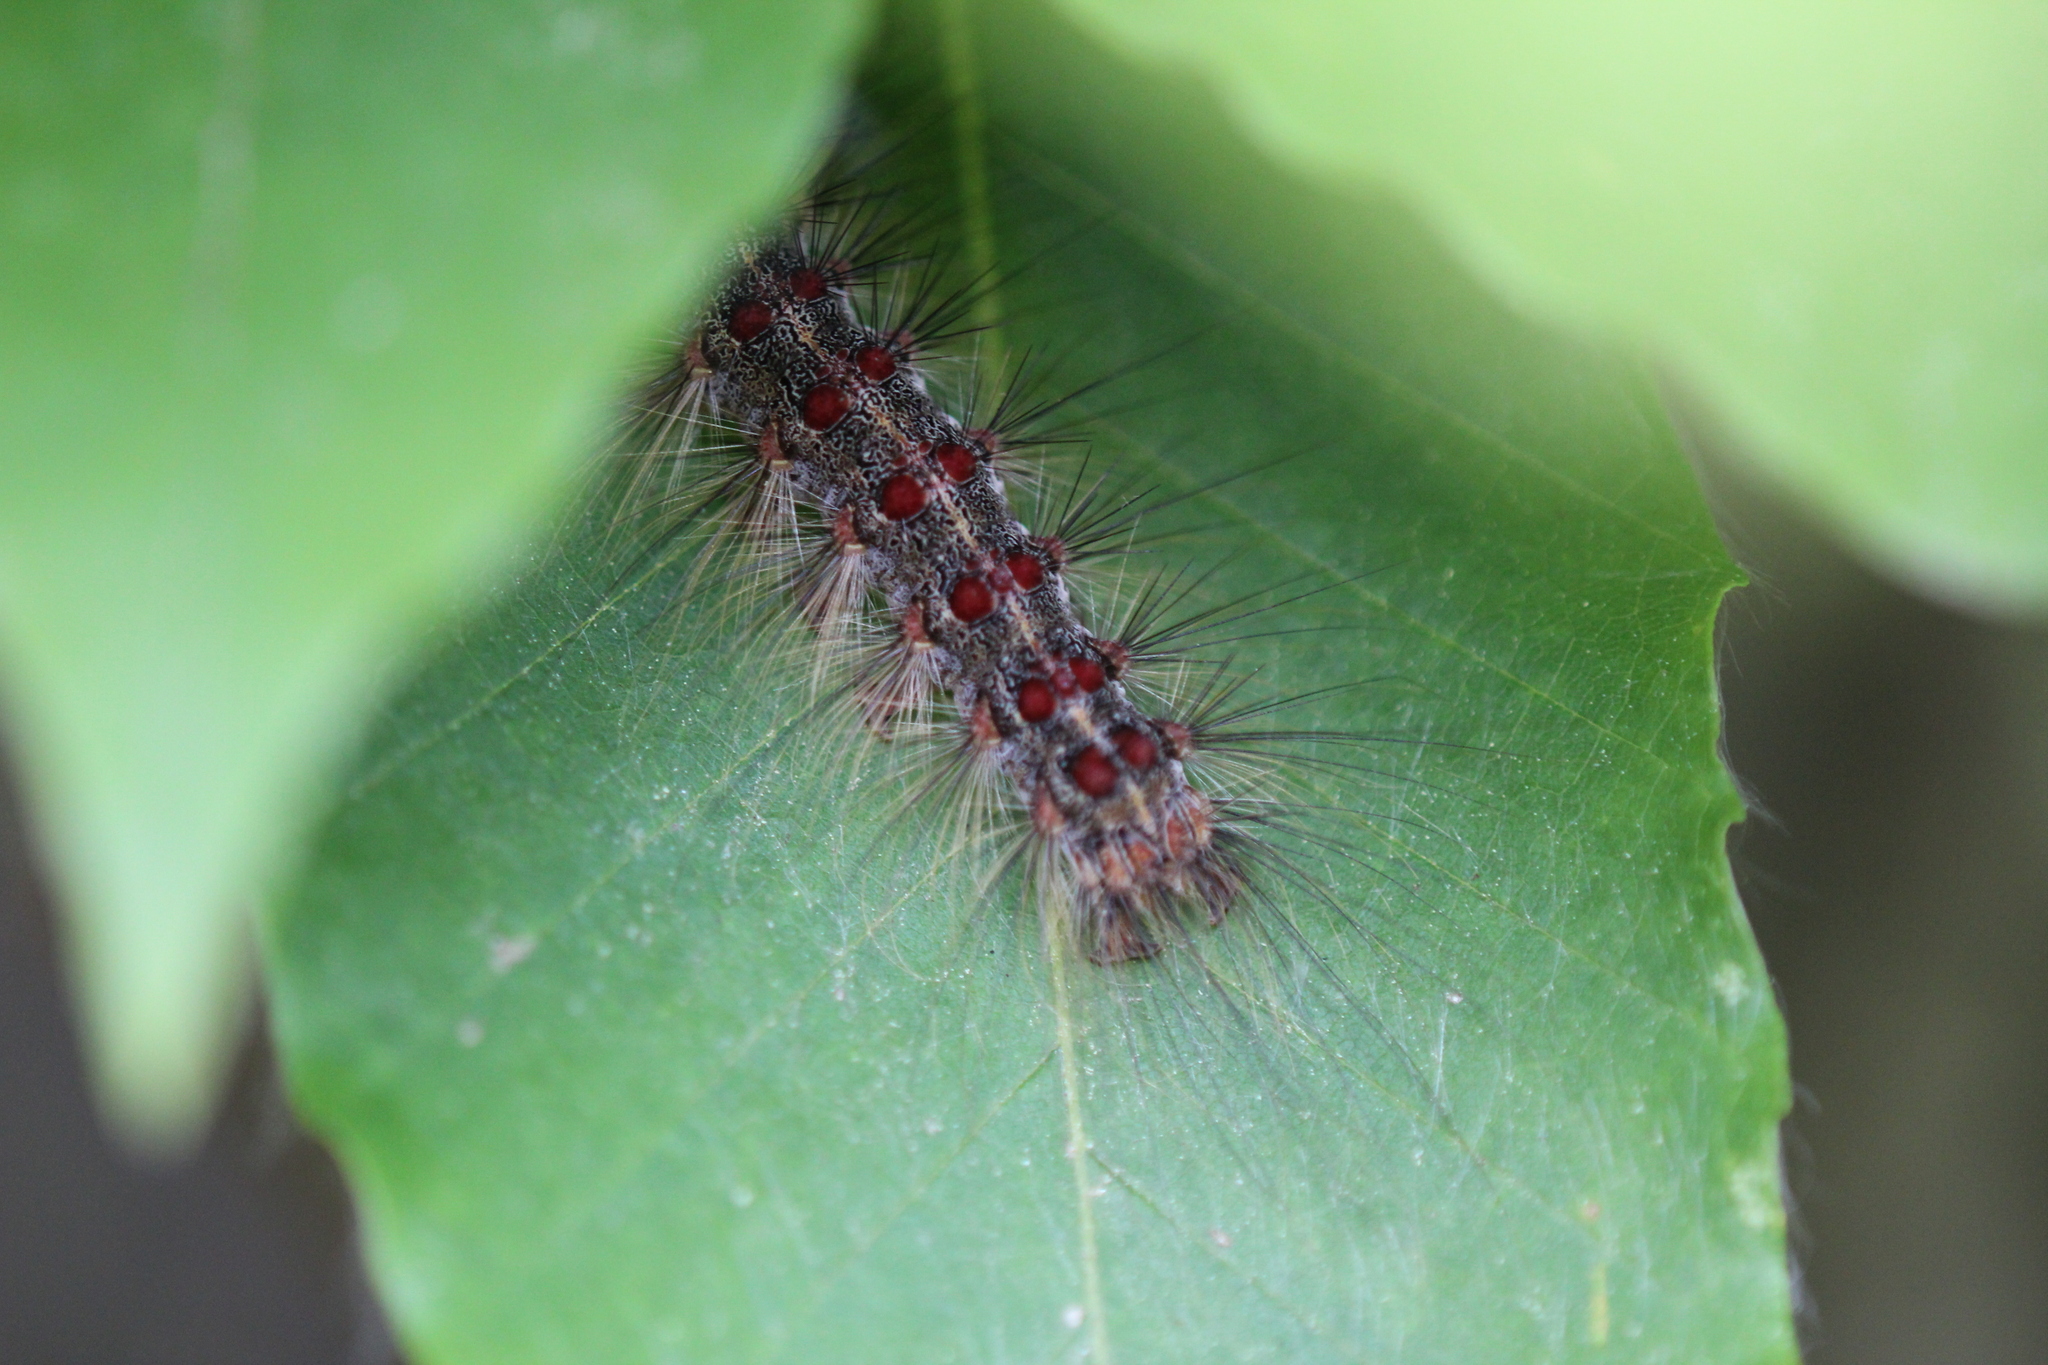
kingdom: Animalia
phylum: Arthropoda
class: Insecta
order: Lepidoptera
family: Erebidae
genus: Lymantria
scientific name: Lymantria dispar
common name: Gypsy moth
